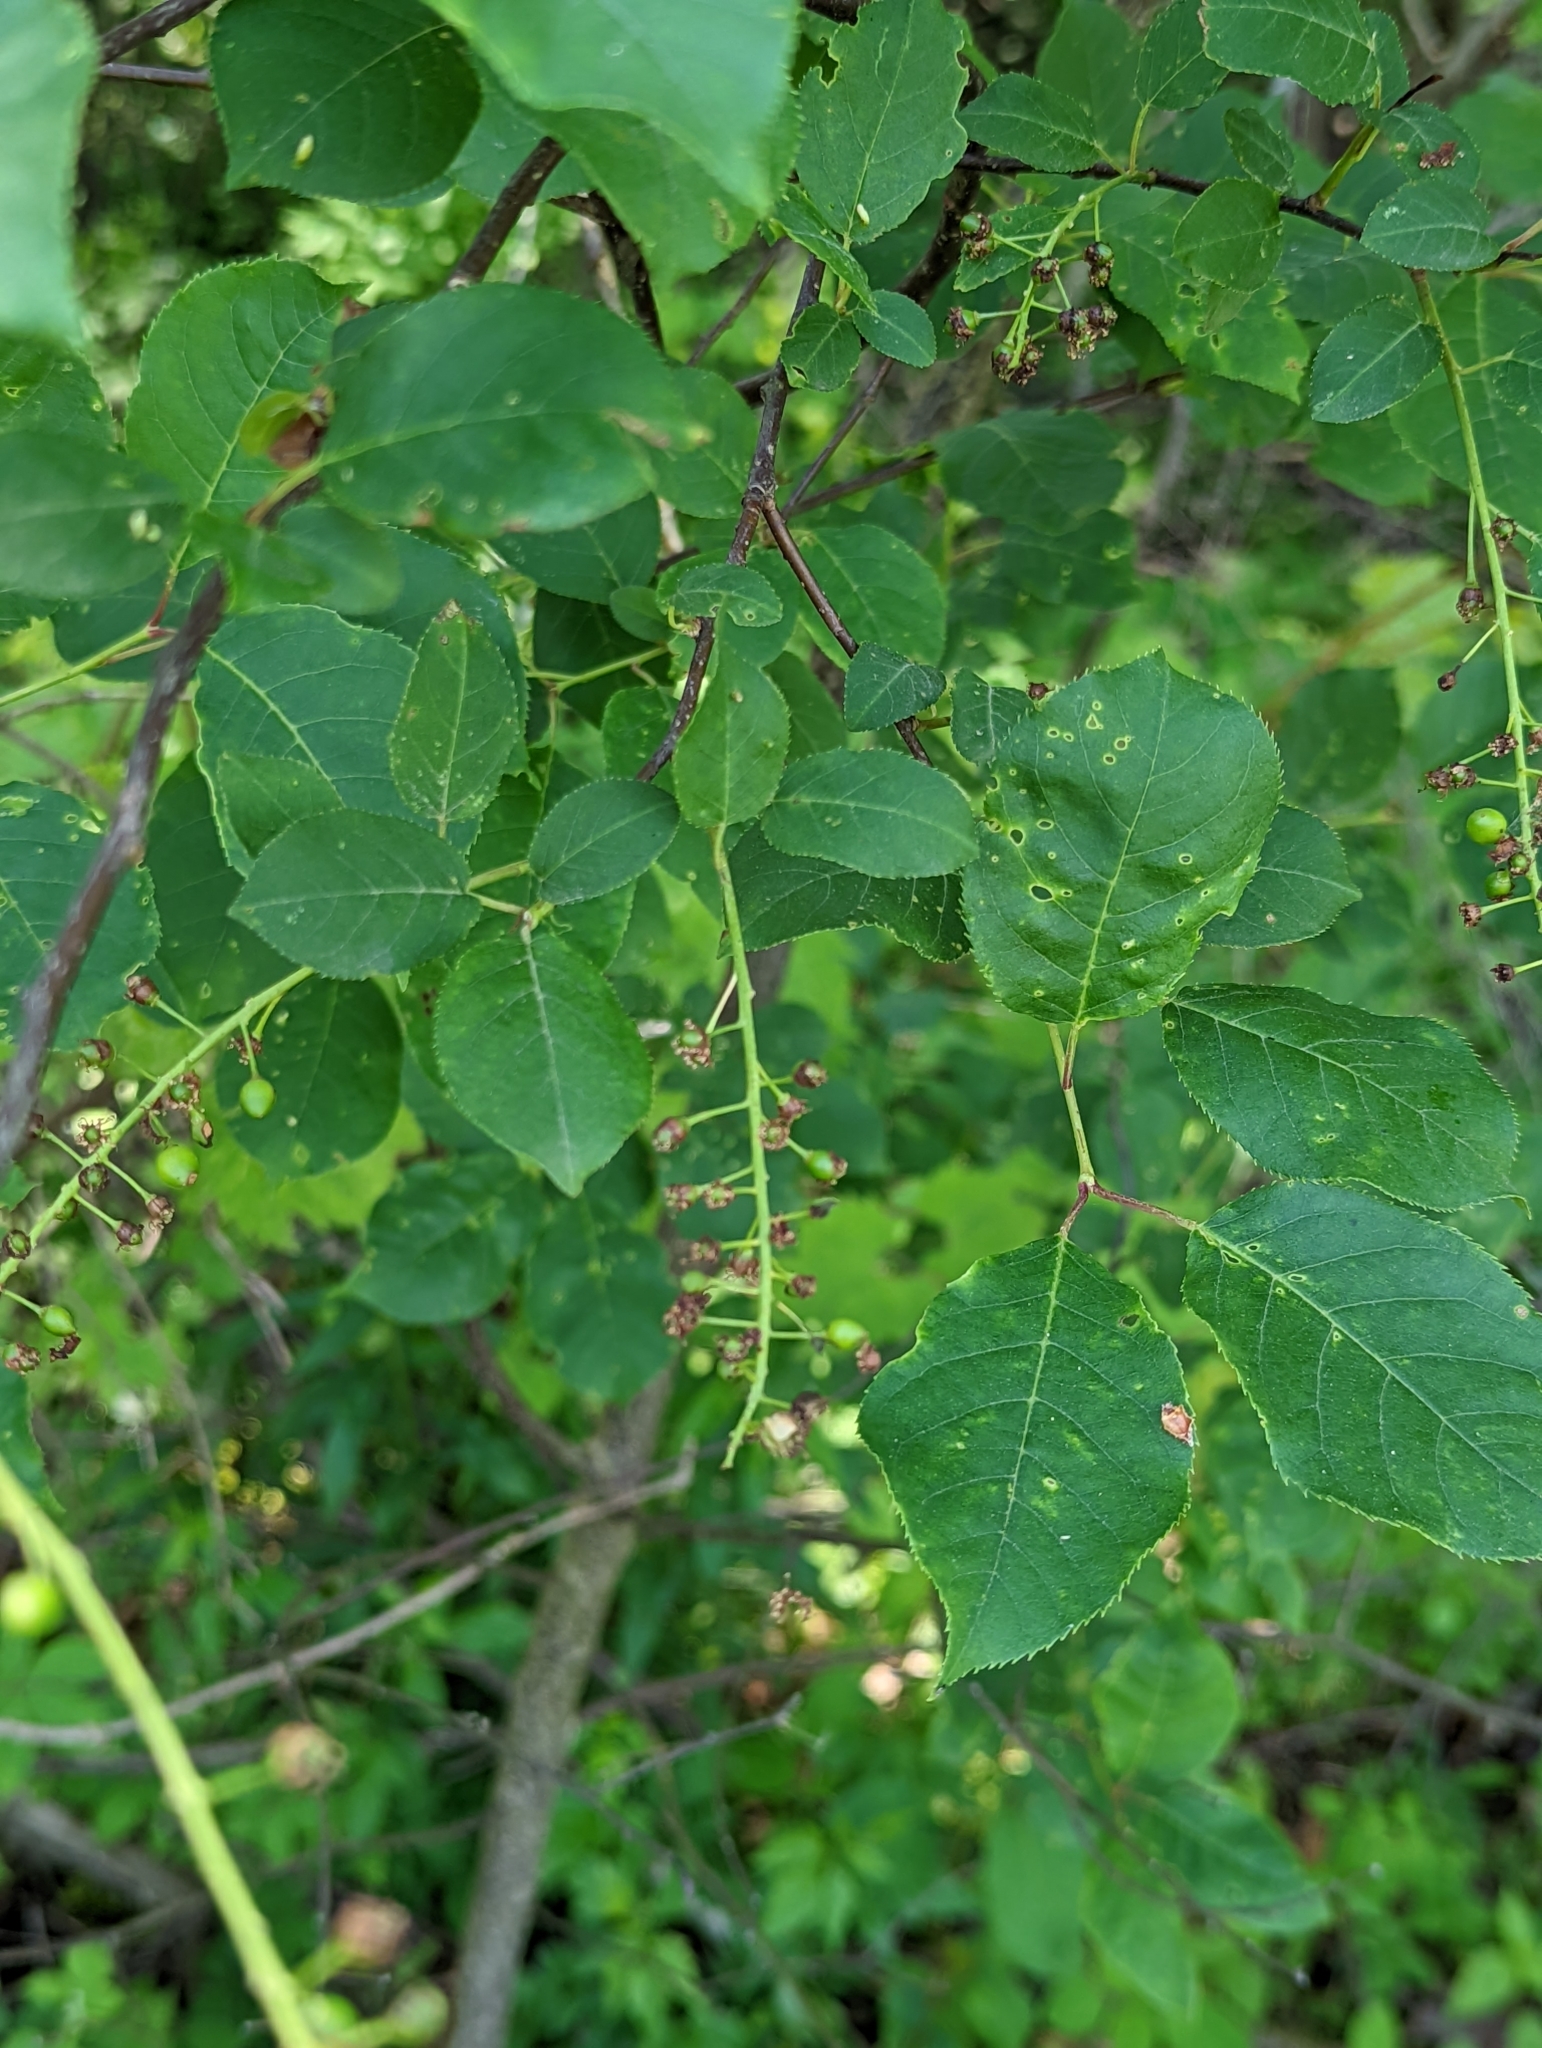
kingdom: Plantae
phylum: Tracheophyta
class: Magnoliopsida
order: Rosales
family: Rosaceae
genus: Prunus
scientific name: Prunus virginiana
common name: Chokecherry
